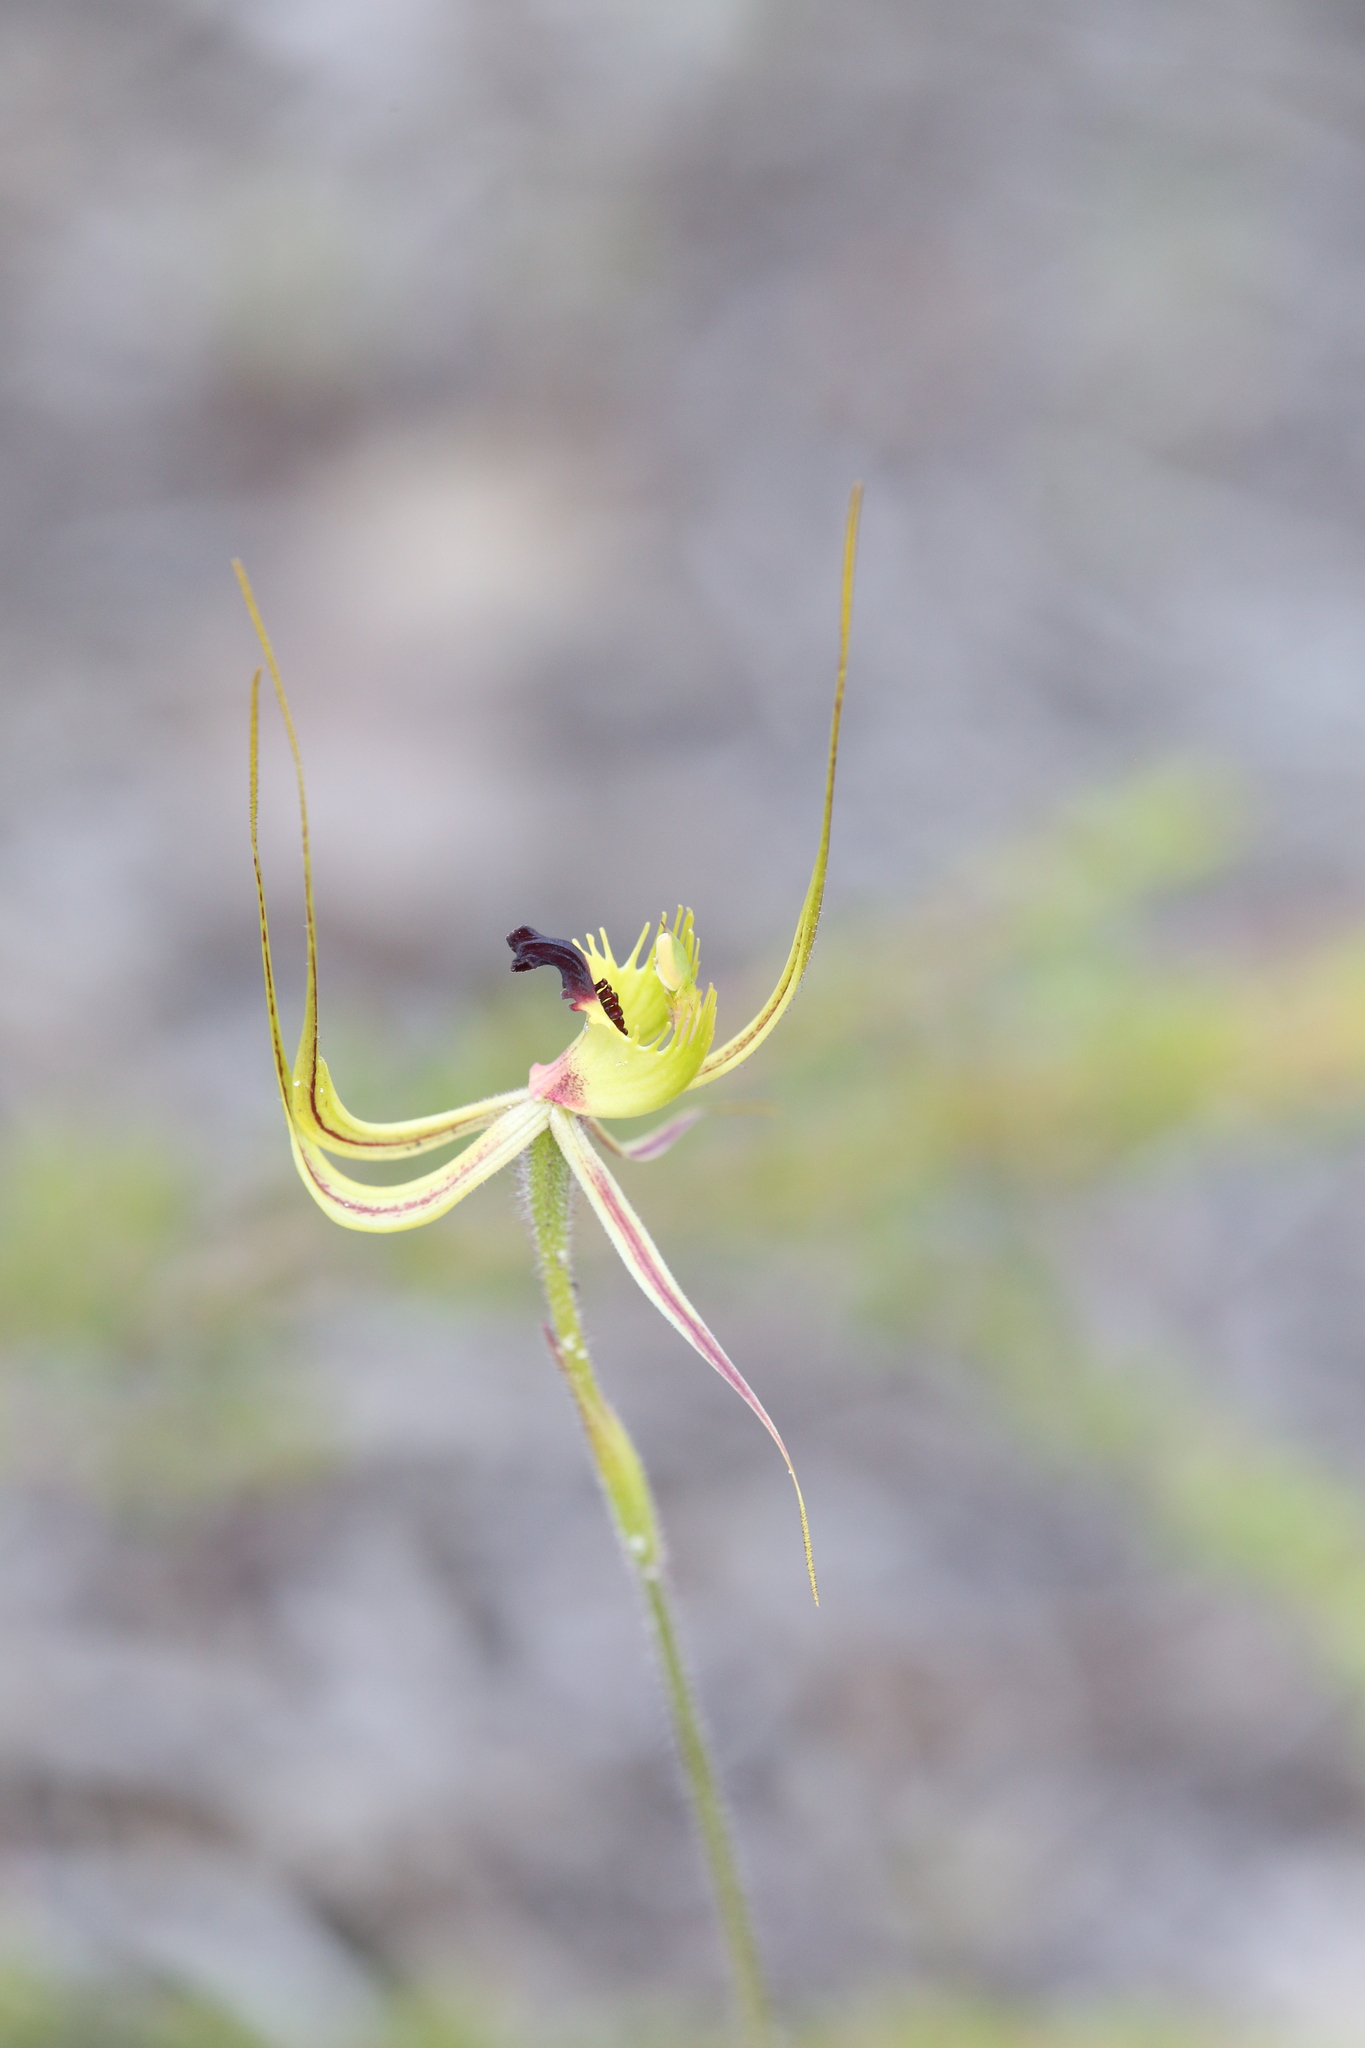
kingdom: Plantae
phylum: Tracheophyta
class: Liliopsida
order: Asparagales
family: Orchidaceae
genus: Caladenia
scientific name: Caladenia attingens
